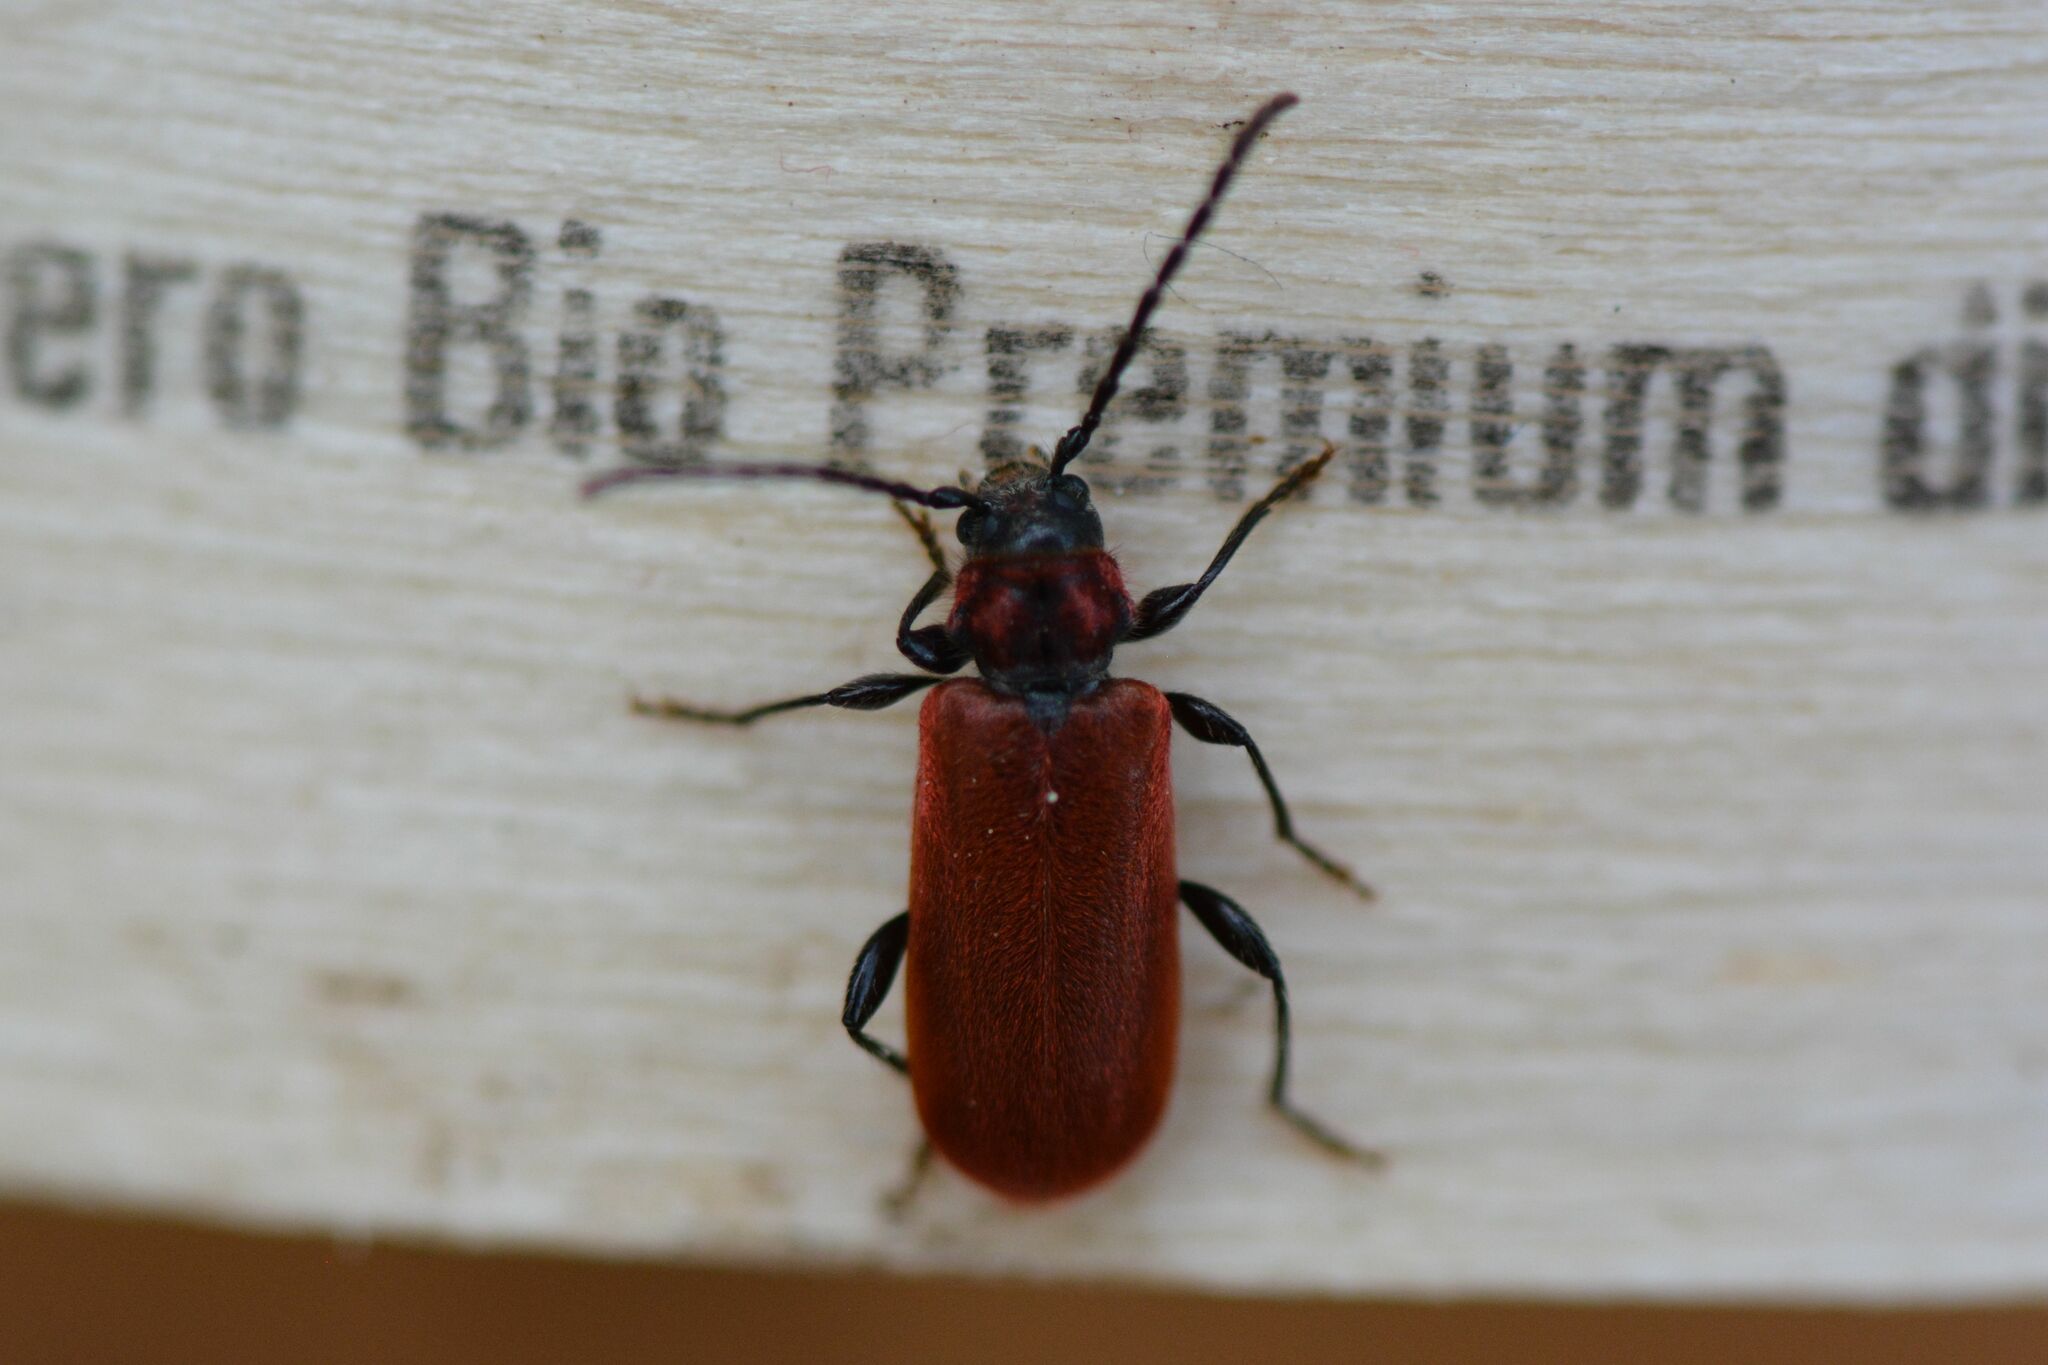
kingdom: Animalia
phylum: Arthropoda
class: Insecta
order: Coleoptera
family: Cerambycidae
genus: Pyrrhidium
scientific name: Pyrrhidium sanguineum
